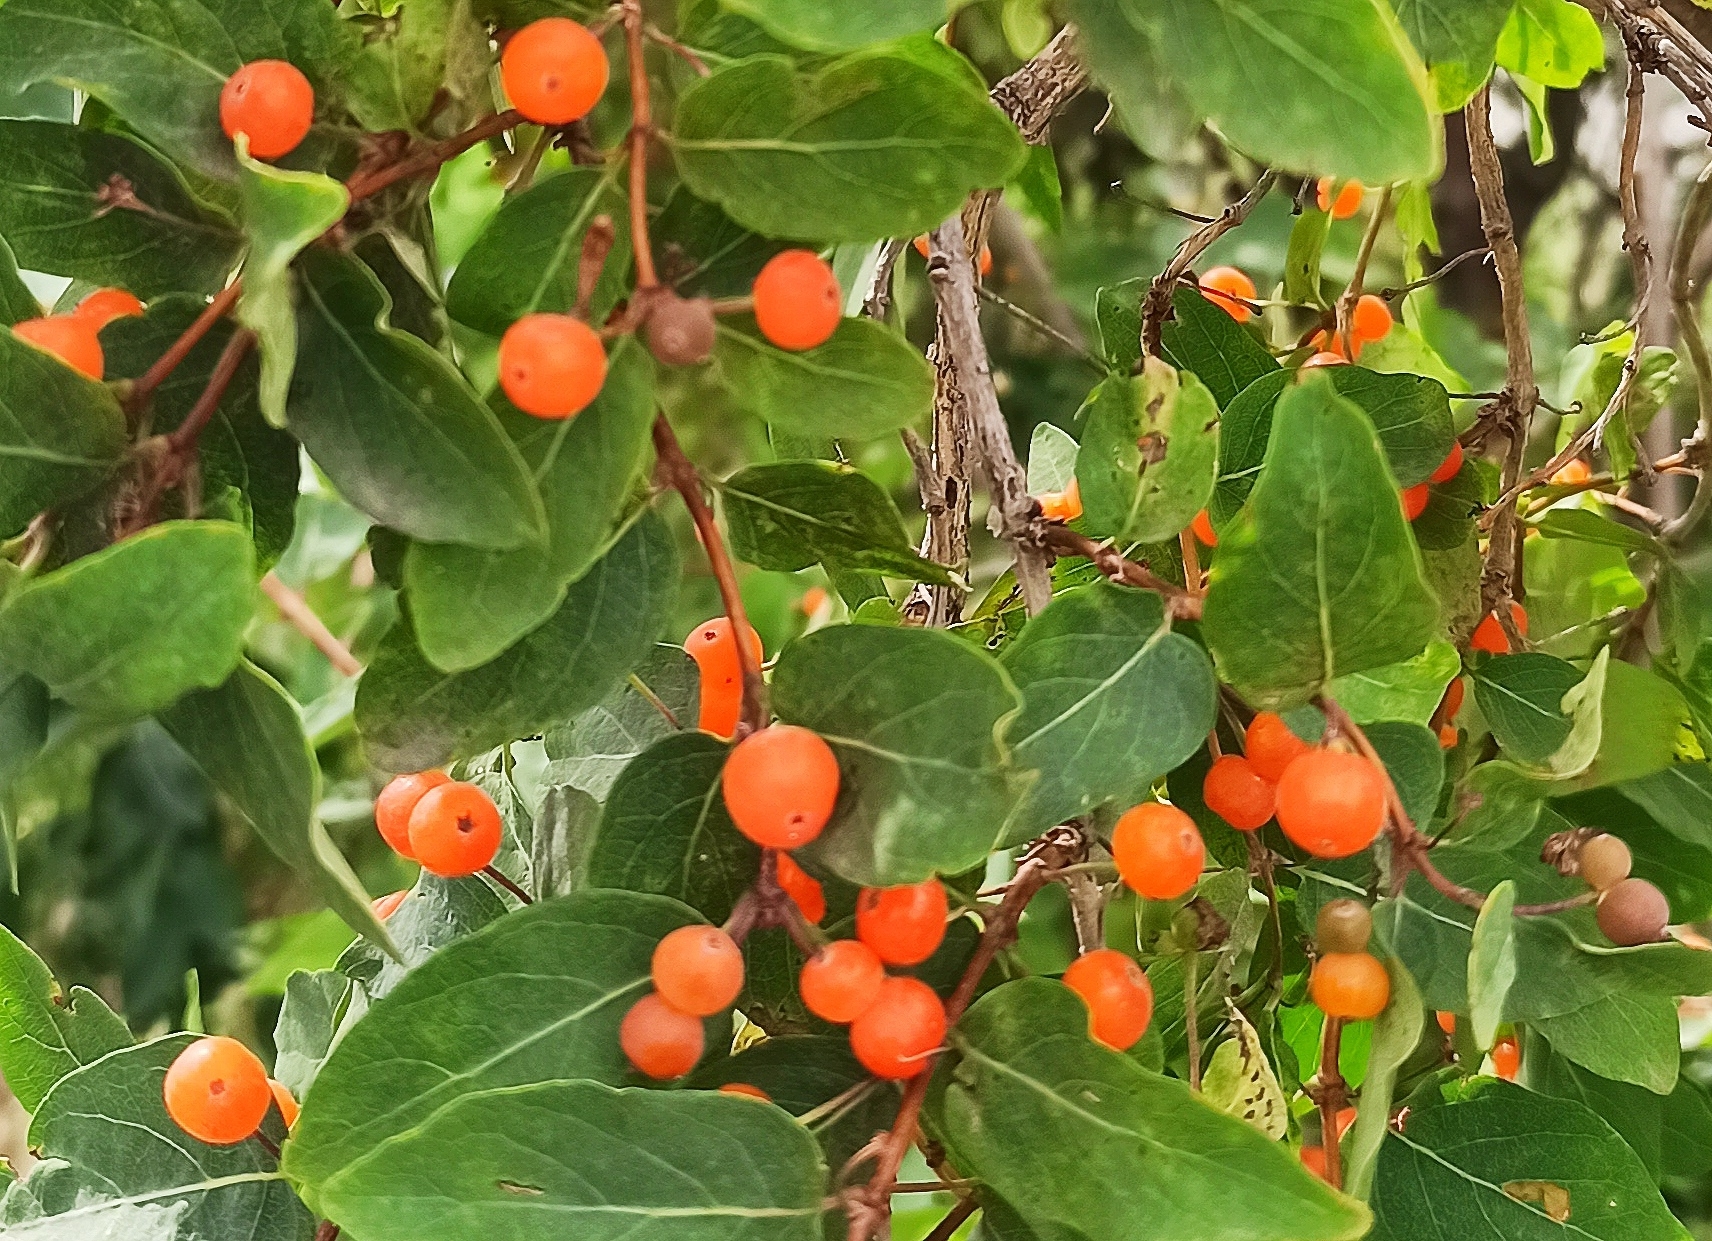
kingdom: Plantae
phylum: Tracheophyta
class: Magnoliopsida
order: Dipsacales
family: Caprifoliaceae
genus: Lonicera
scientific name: Lonicera tatarica
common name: Tatarian honeysuckle
